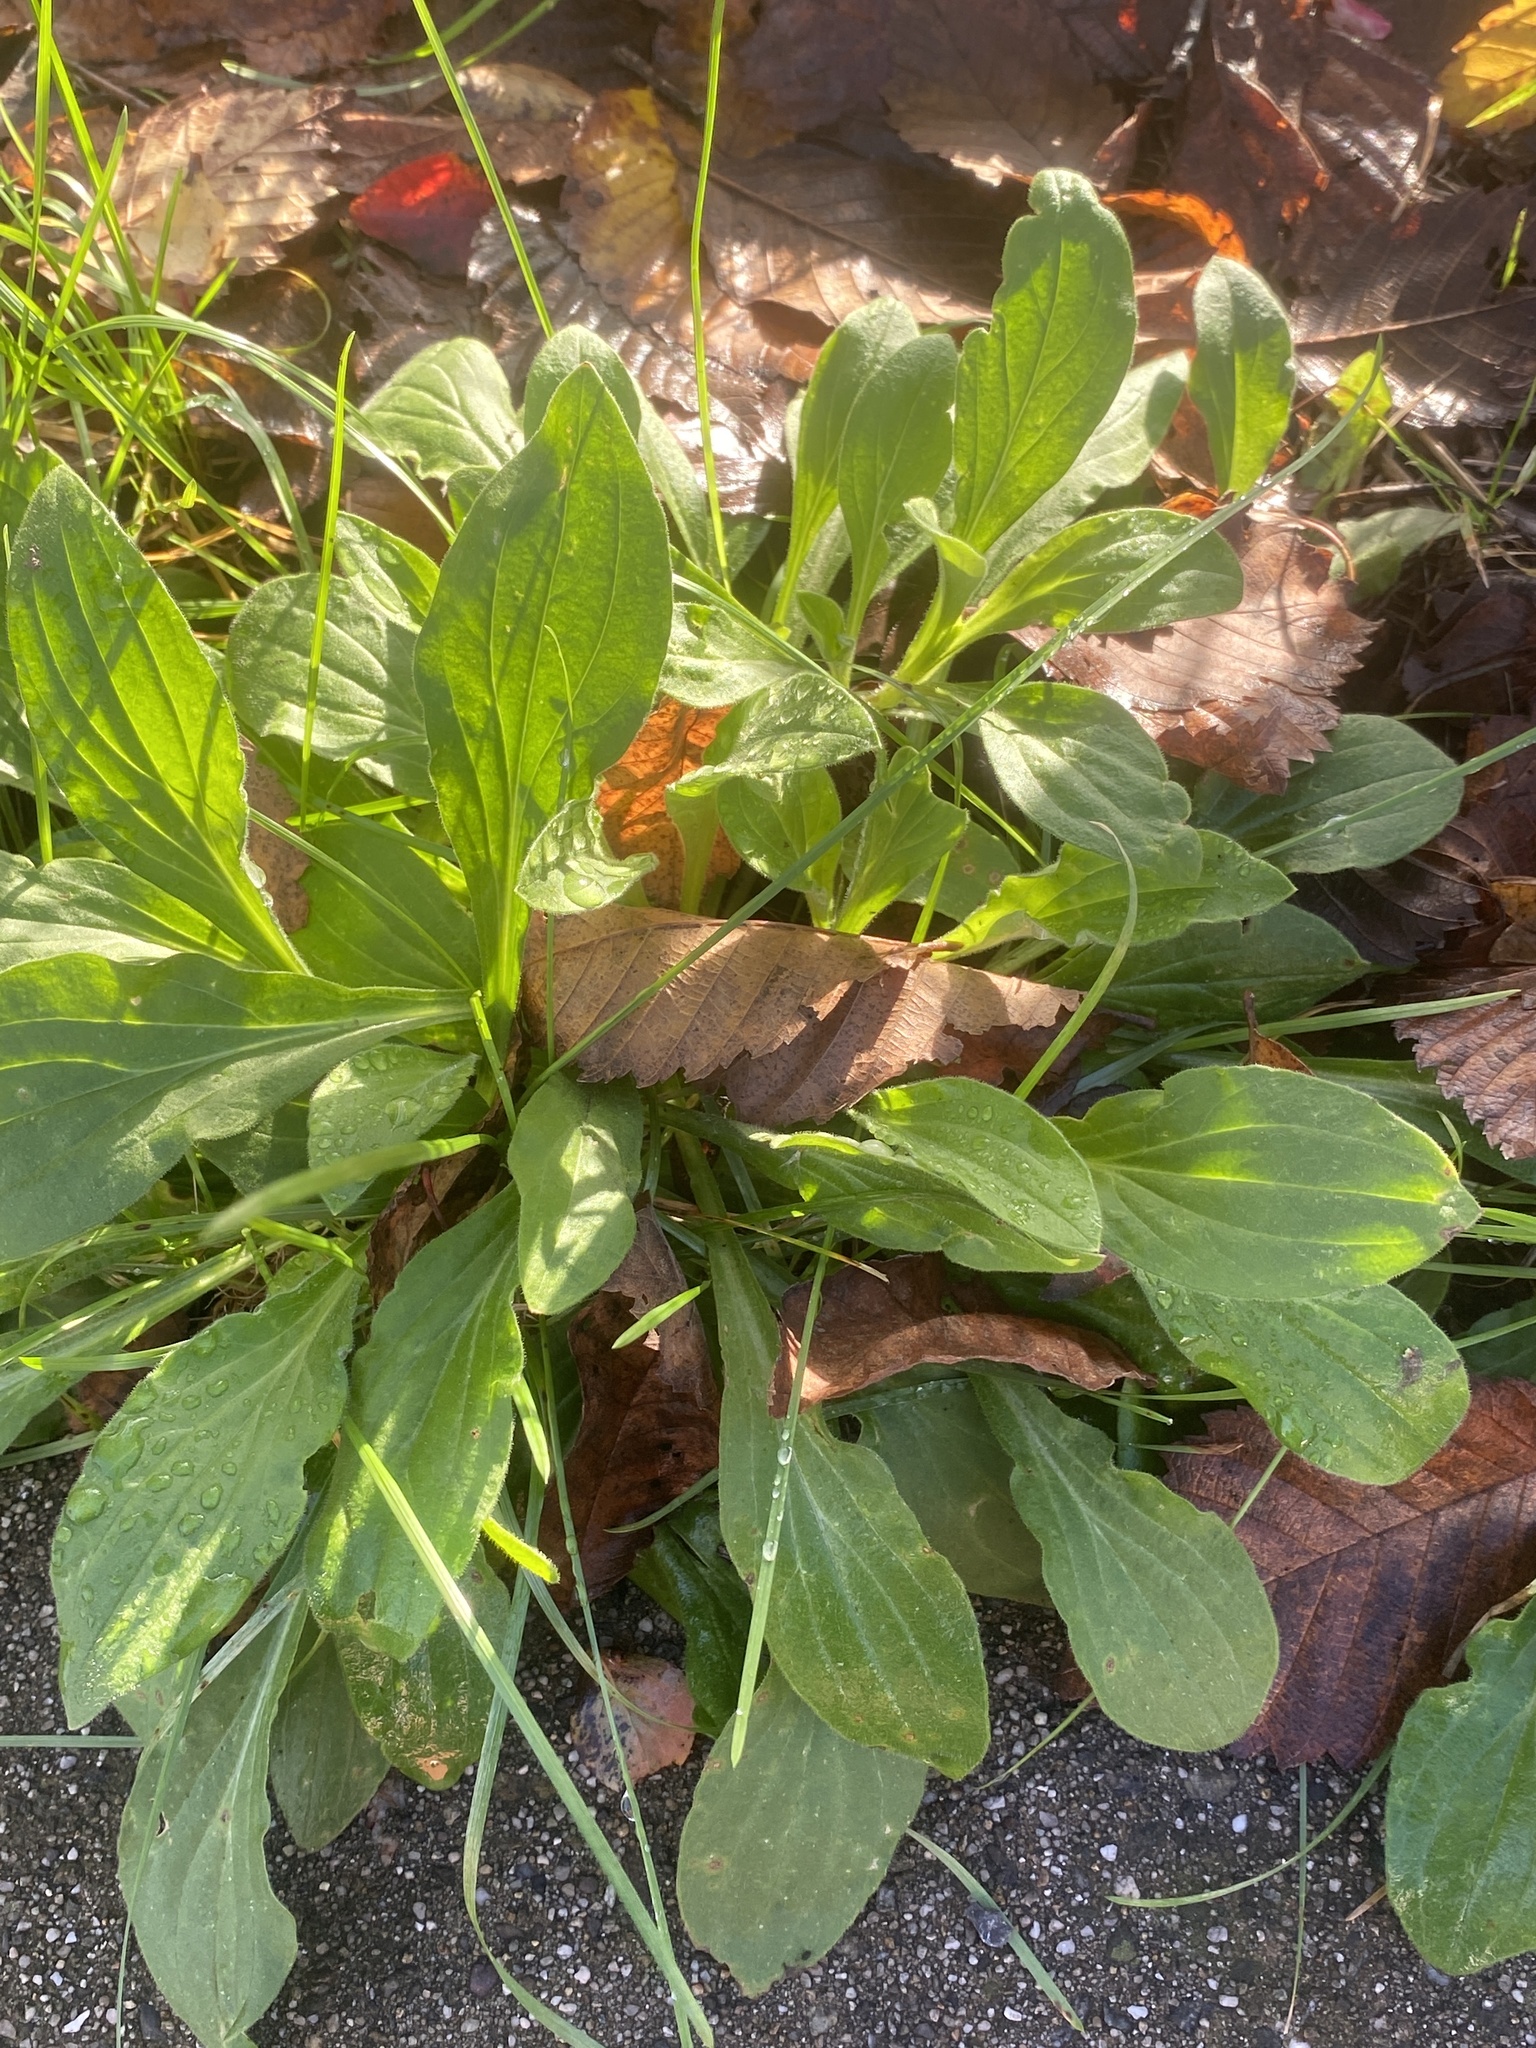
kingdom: Plantae
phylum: Tracheophyta
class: Magnoliopsida
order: Caryophyllales
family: Caryophyllaceae
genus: Silene
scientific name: Silene latifolia
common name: White campion
